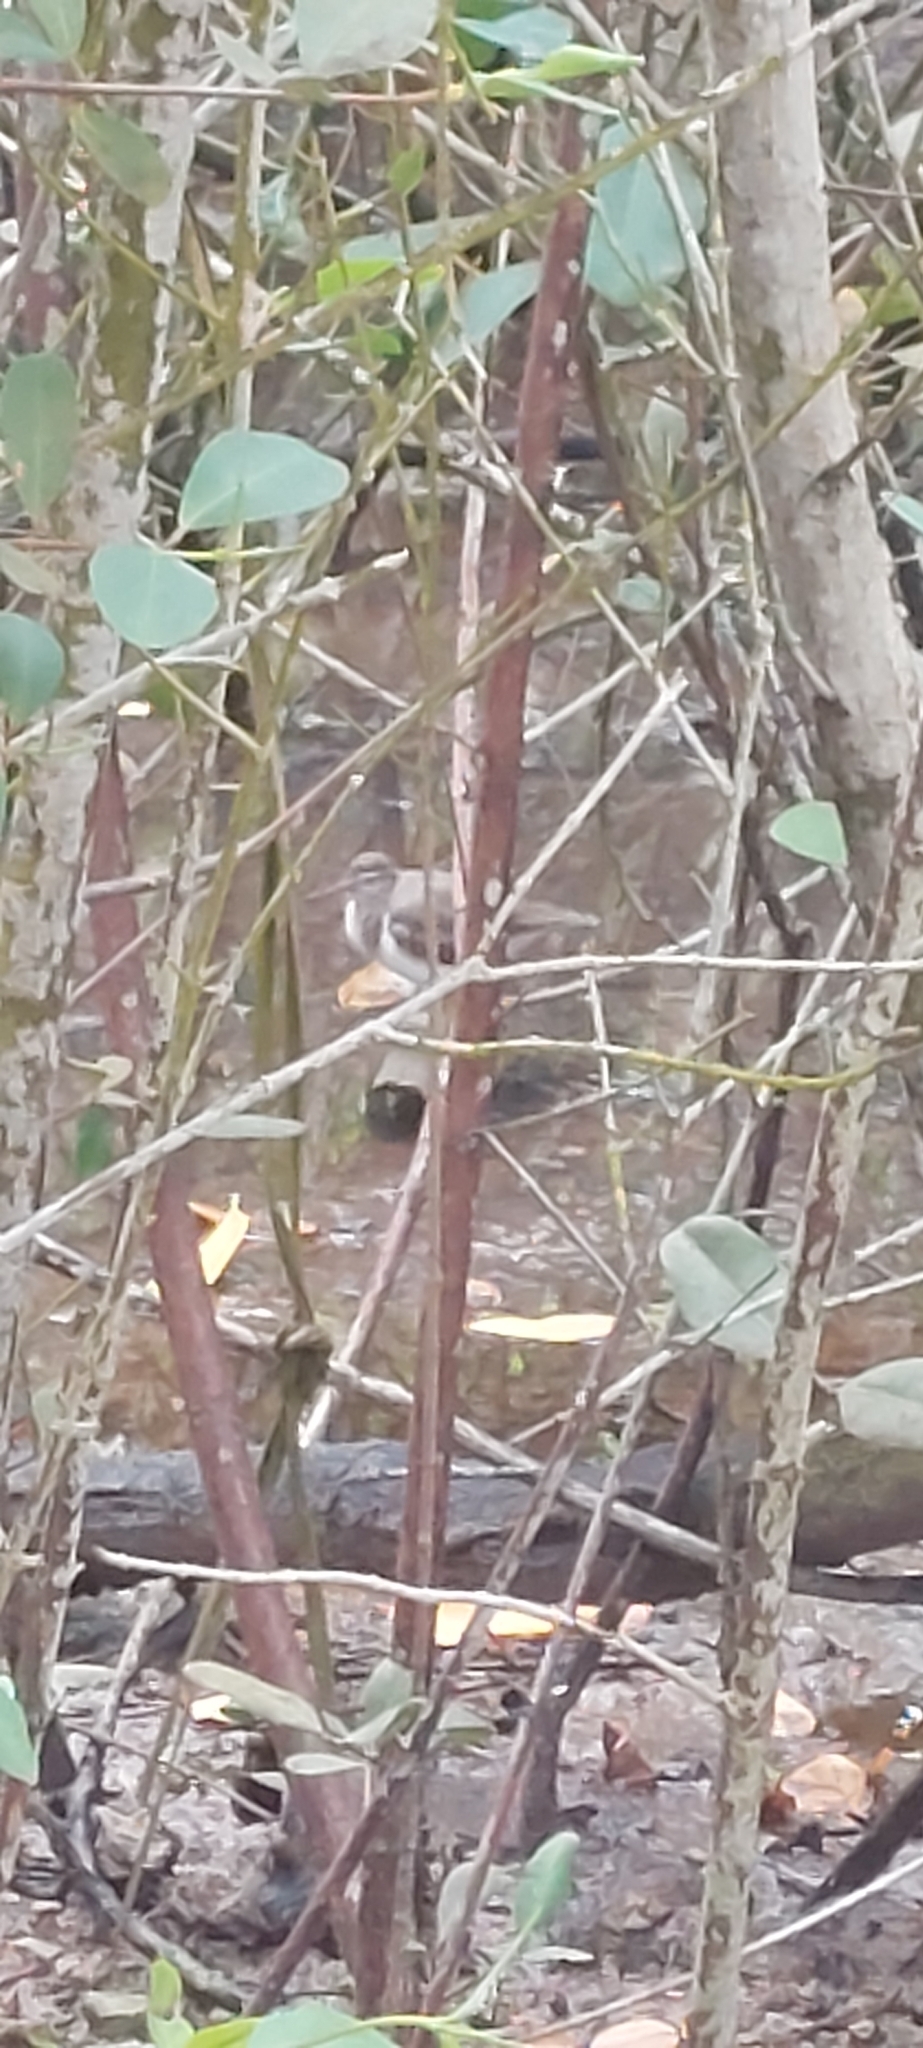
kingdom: Animalia
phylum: Chordata
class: Aves
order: Charadriiformes
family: Scolopacidae
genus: Actitis
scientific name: Actitis macularius
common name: Spotted sandpiper
